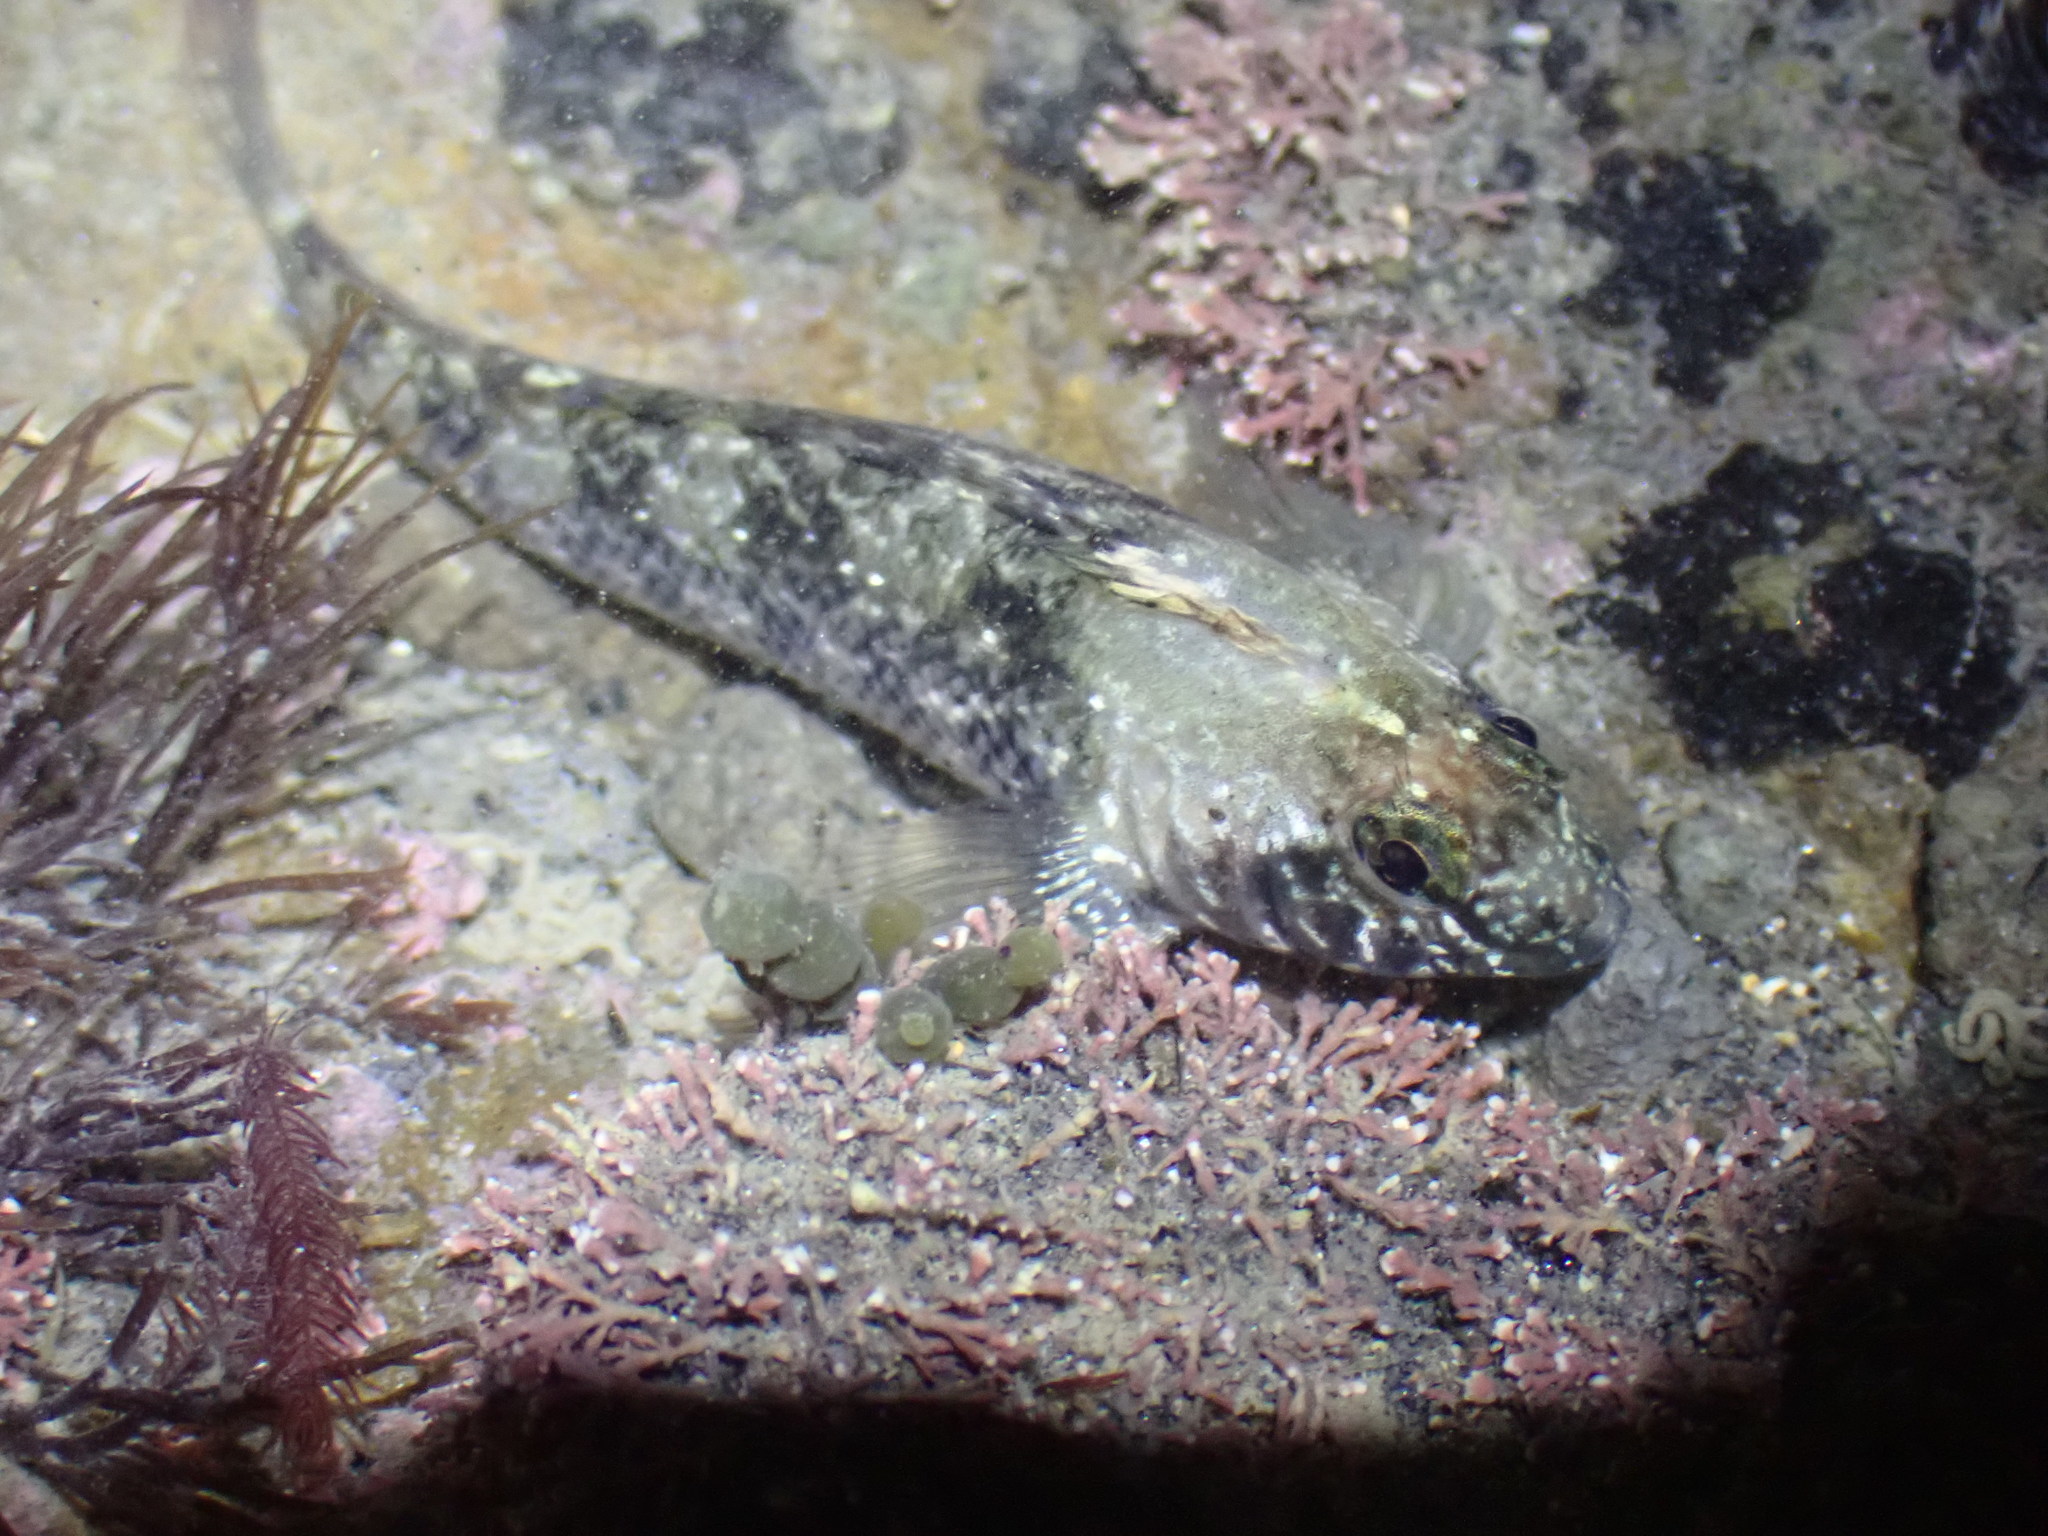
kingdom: Animalia
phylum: Chordata
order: Perciformes
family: Tripterygiidae
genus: Forsterygion
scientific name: Forsterygion lapillum
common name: Common triplefin
